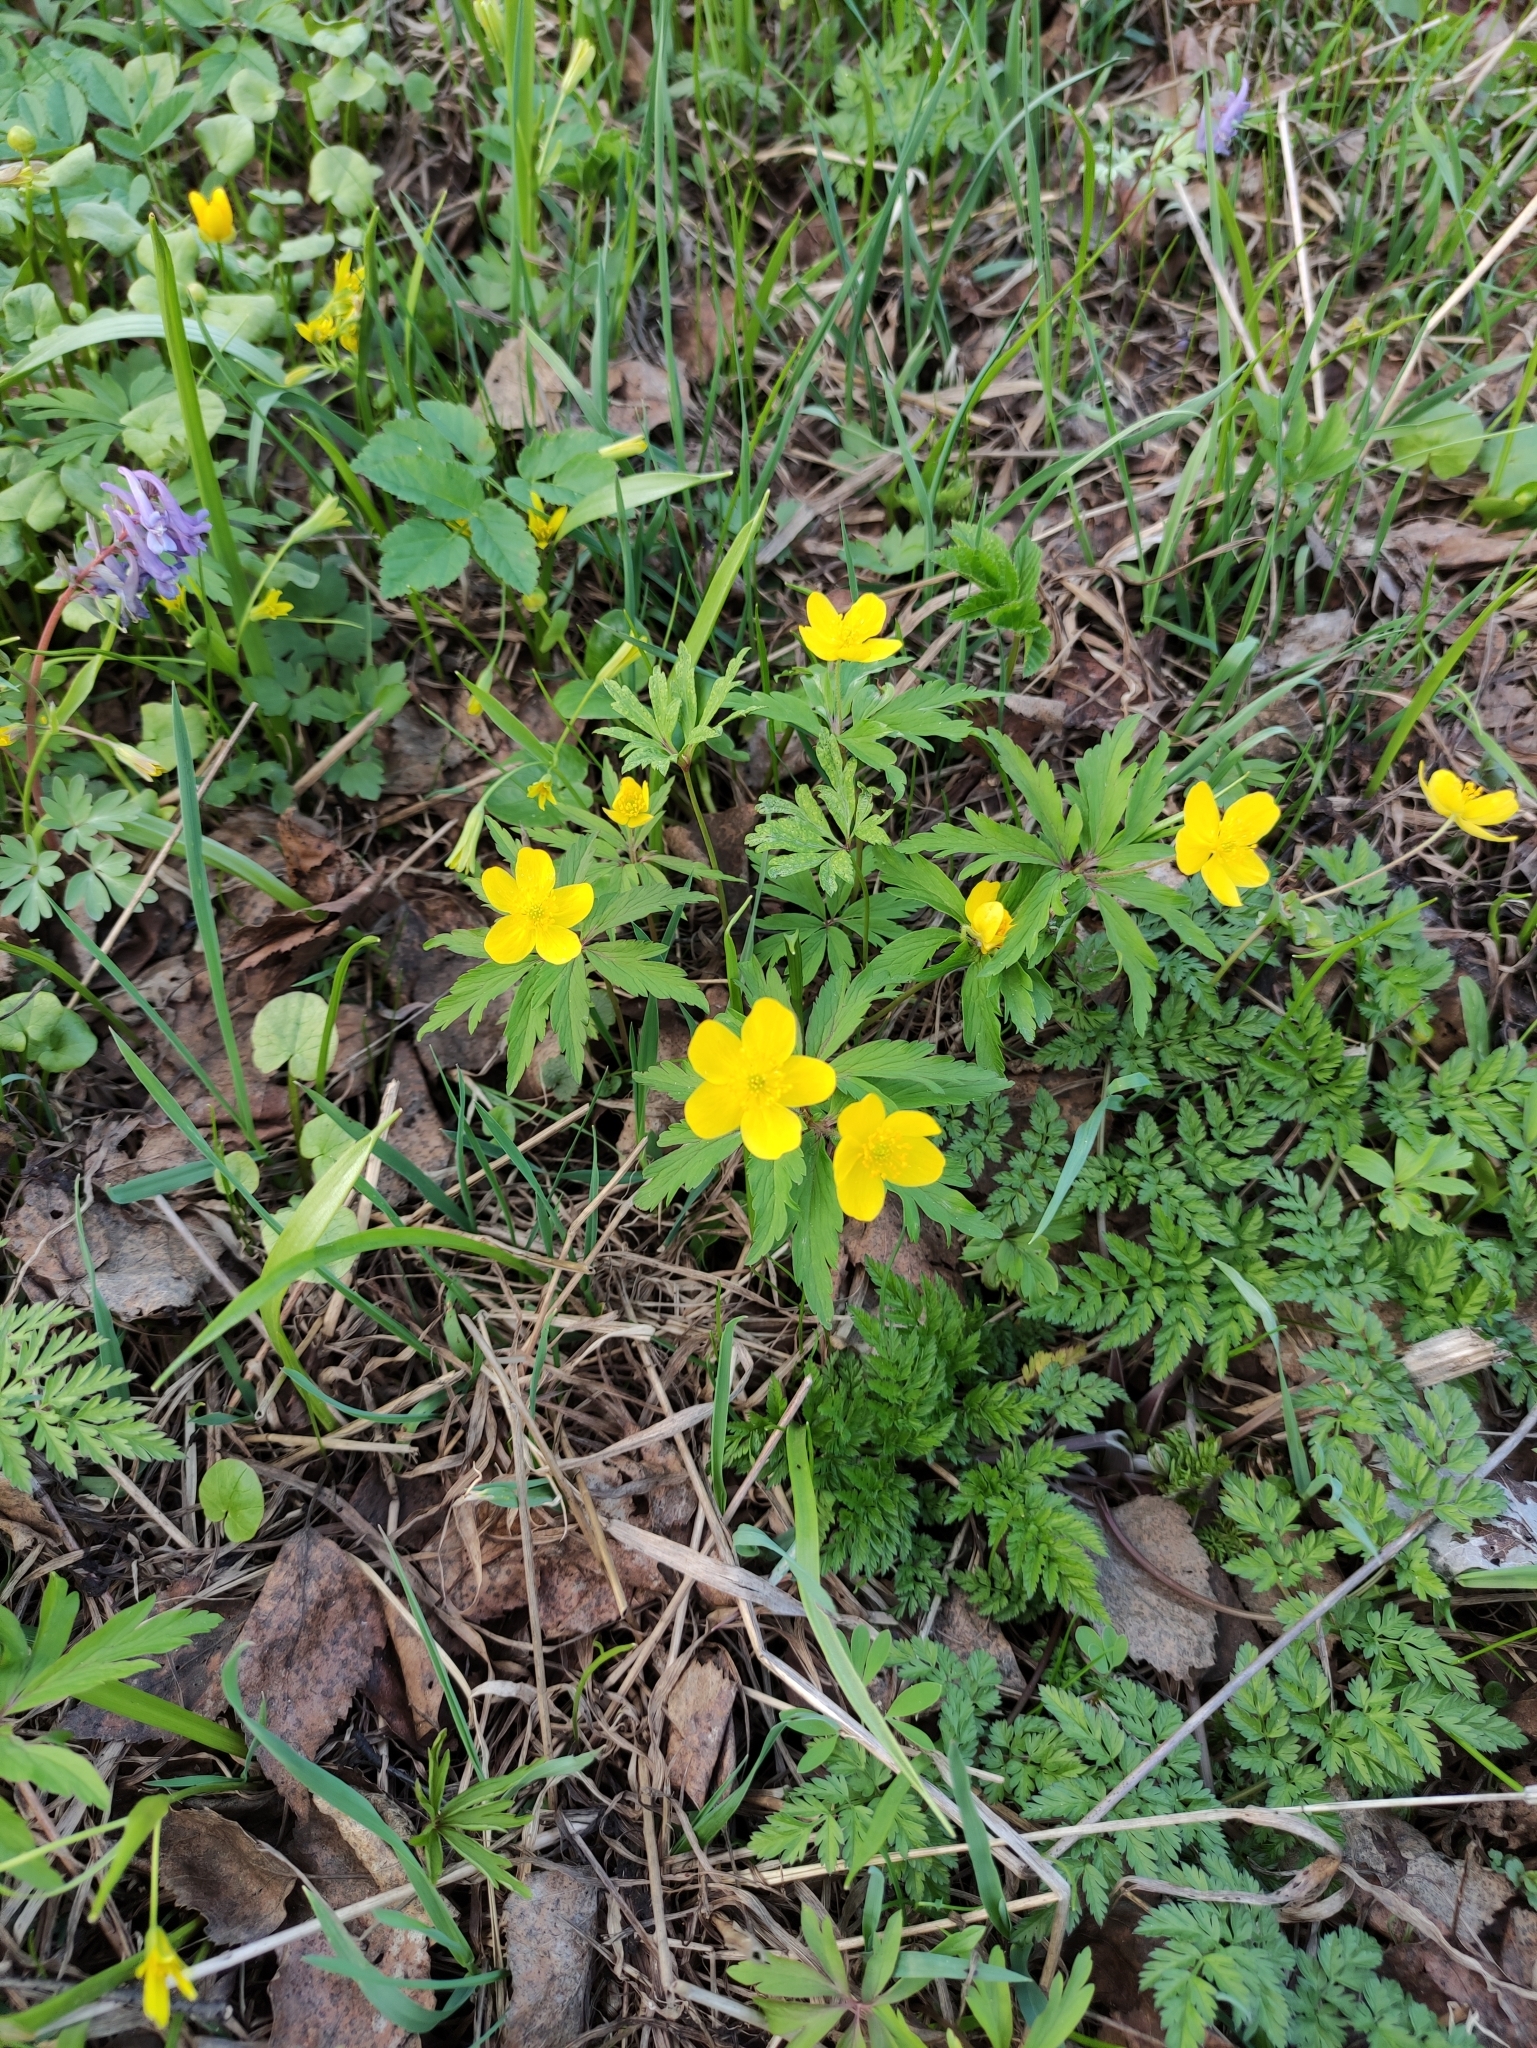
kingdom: Plantae
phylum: Tracheophyta
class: Magnoliopsida
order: Ranunculales
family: Ranunculaceae
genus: Anemone
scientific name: Anemone ranunculoides
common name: Yellow anemone
